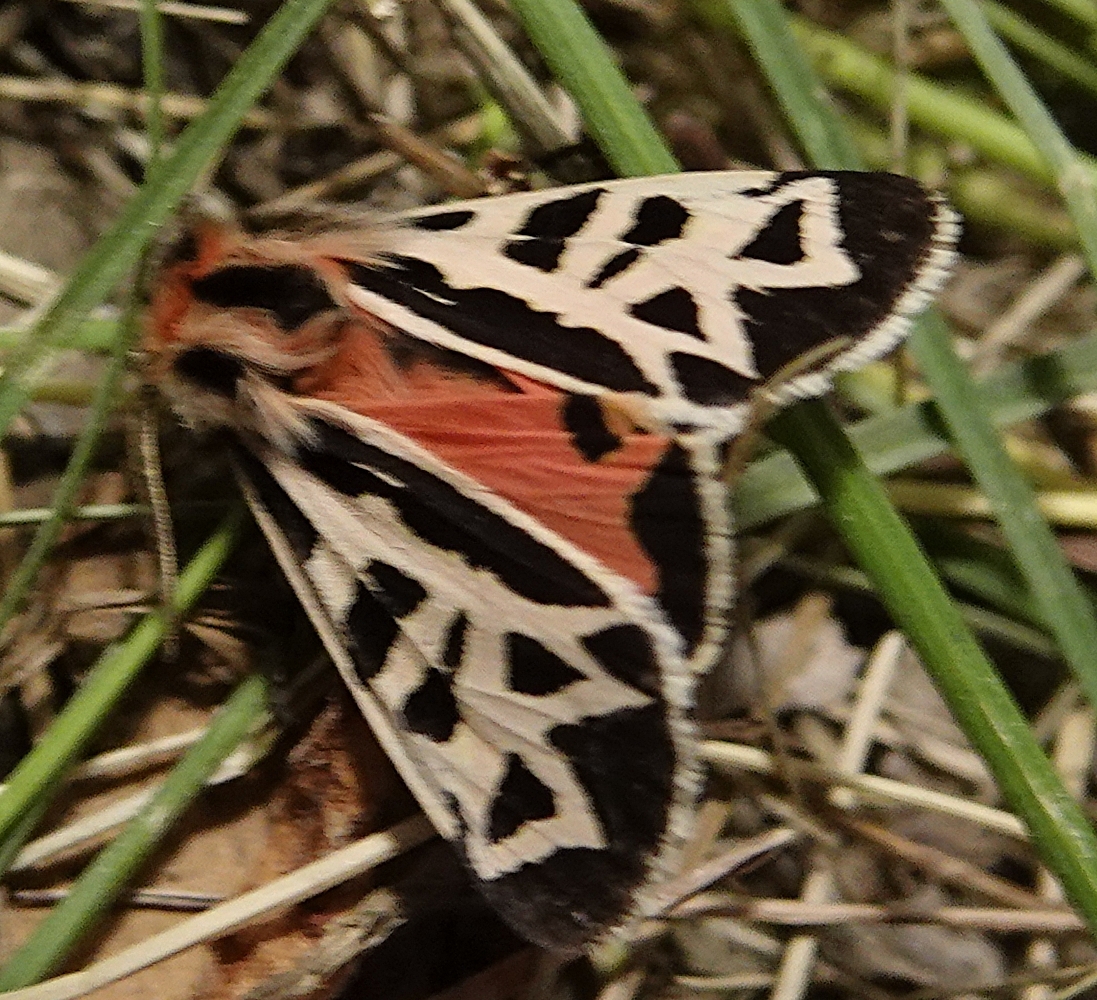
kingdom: Animalia
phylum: Arthropoda
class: Insecta
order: Lepidoptera
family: Erebidae
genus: Apantesis
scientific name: Apantesis
